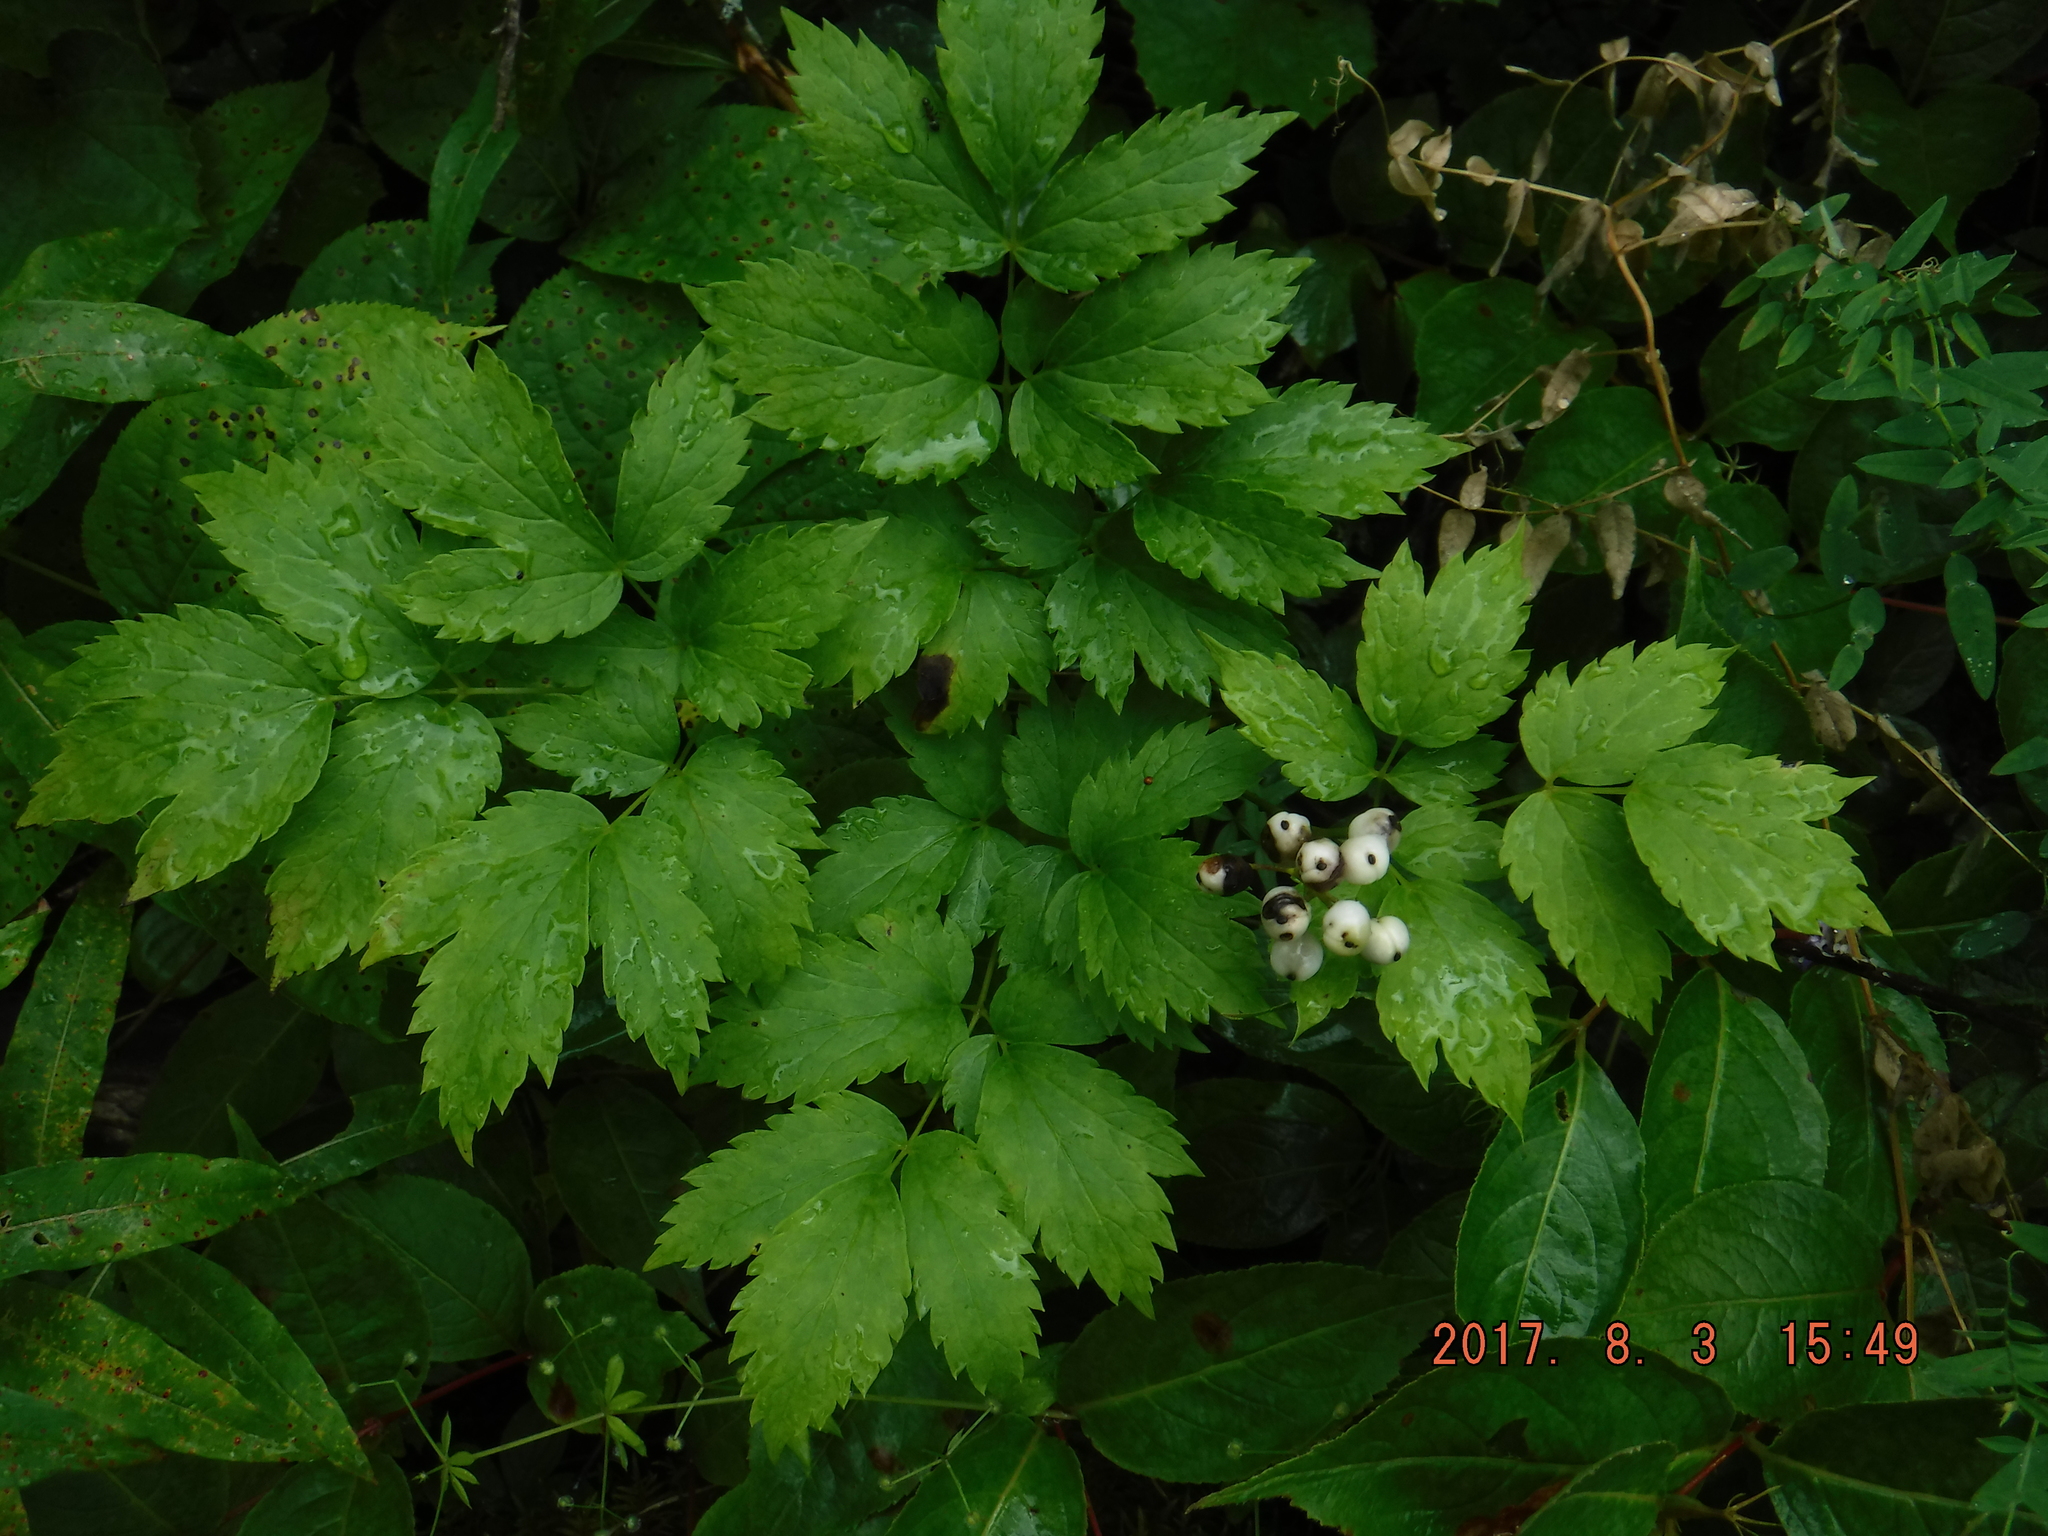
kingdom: Plantae
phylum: Tracheophyta
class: Magnoliopsida
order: Ranunculales
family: Ranunculaceae
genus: Actaea
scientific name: Actaea rubra
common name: Red baneberry
